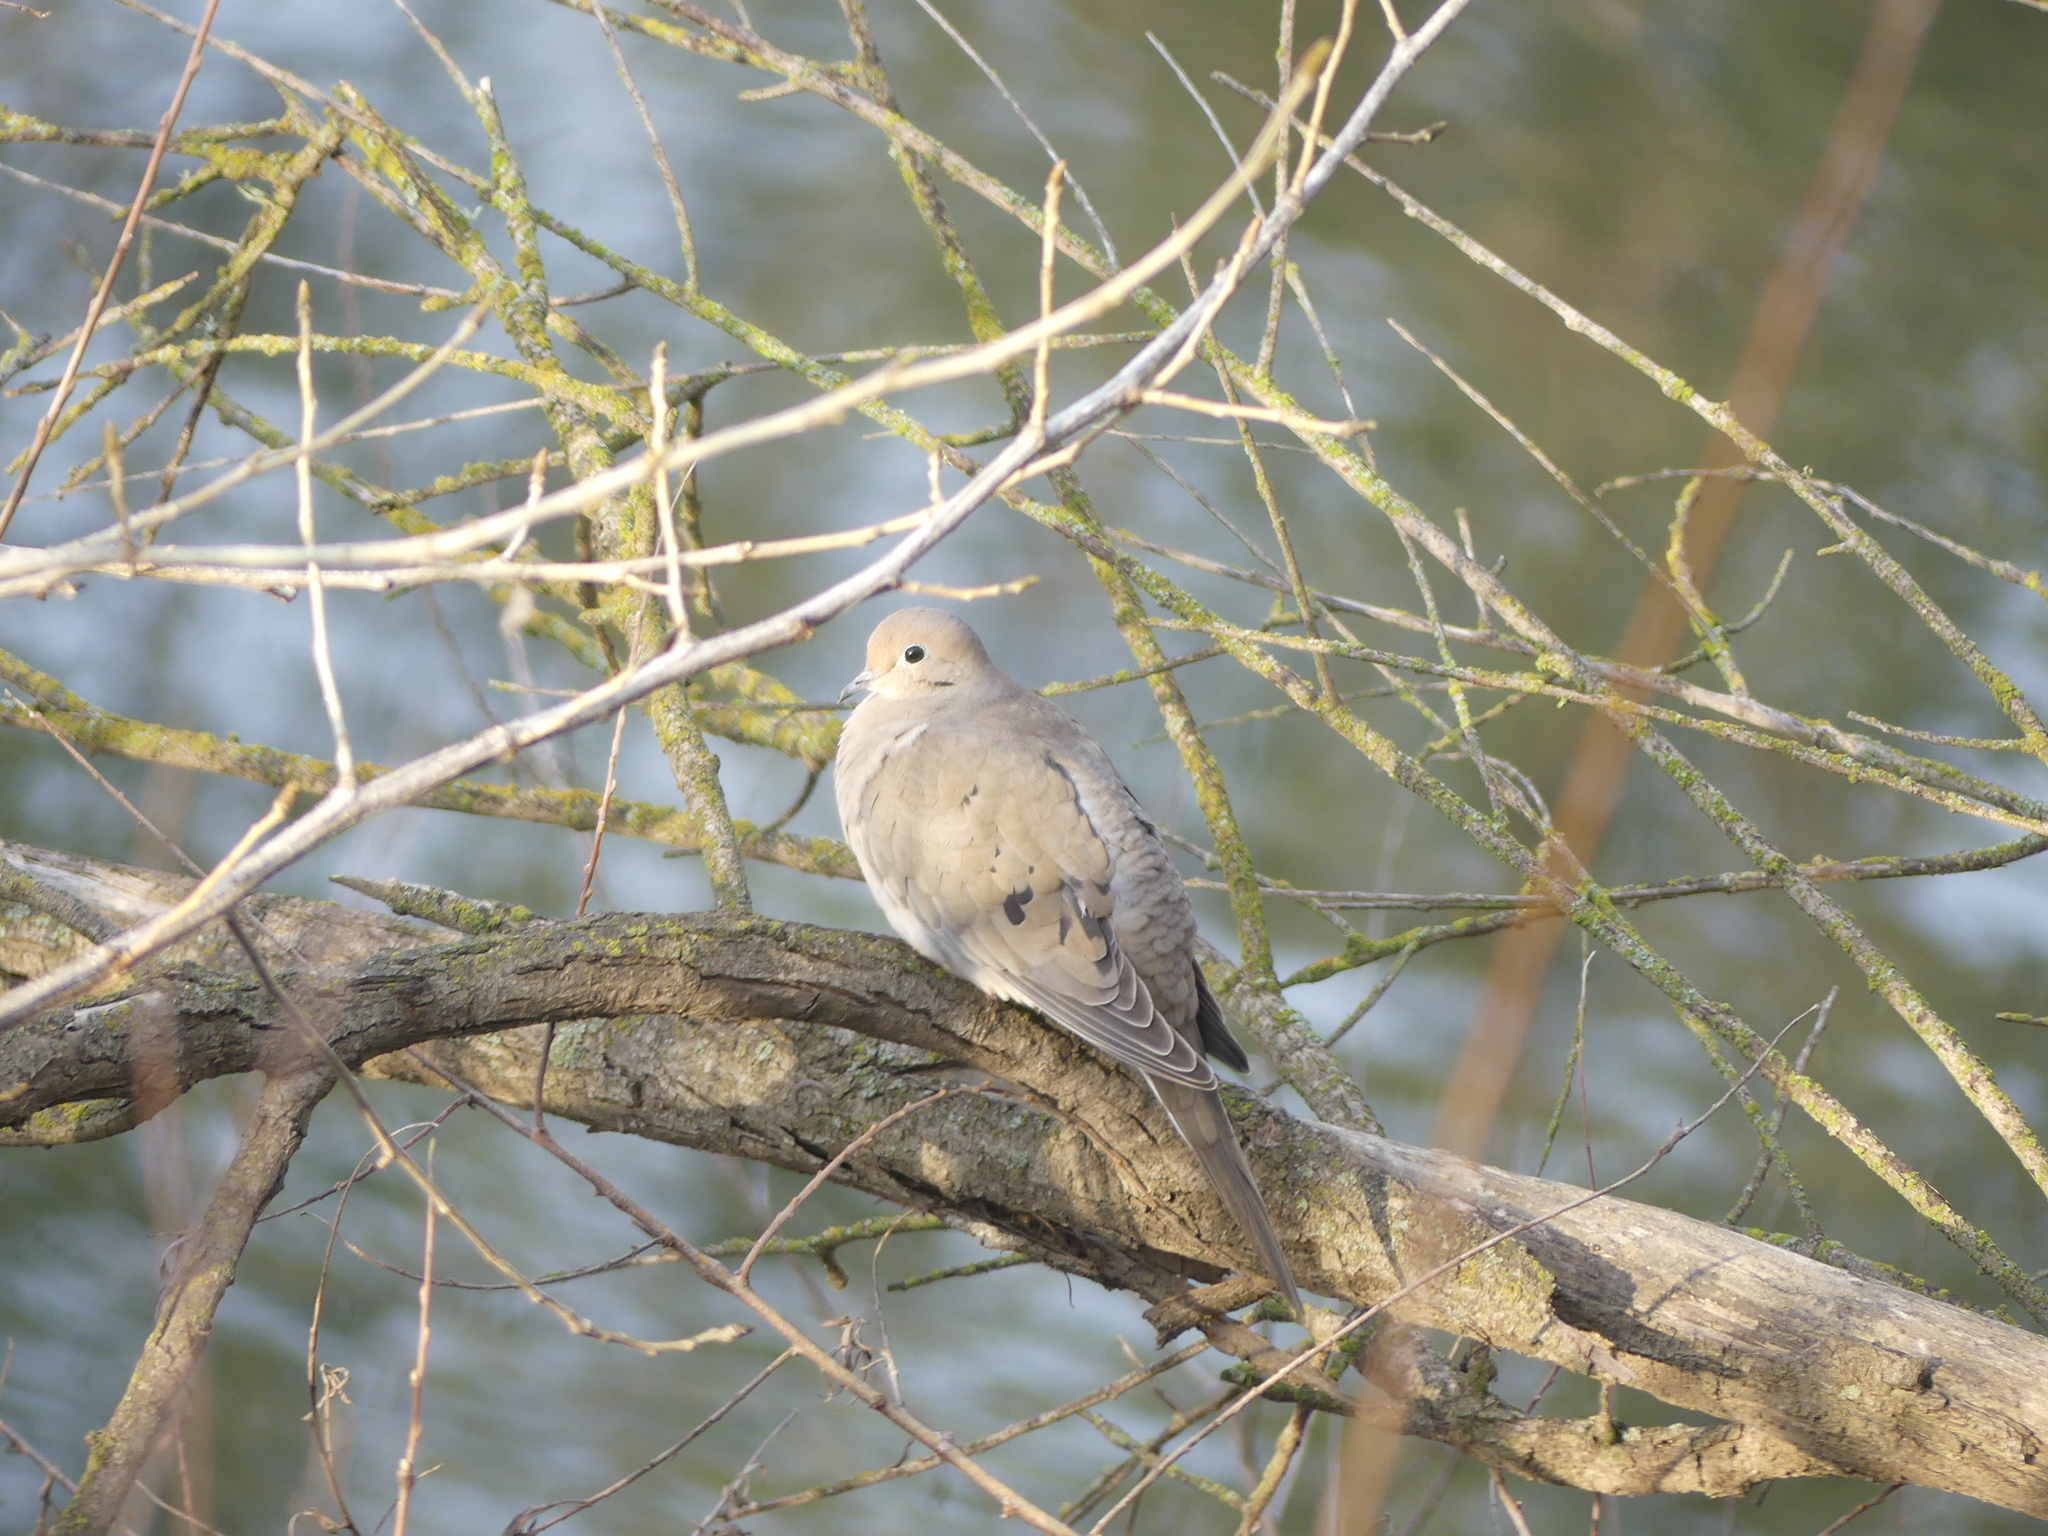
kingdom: Animalia
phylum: Chordata
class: Aves
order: Columbiformes
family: Columbidae
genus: Zenaida
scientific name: Zenaida macroura
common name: Mourning dove
